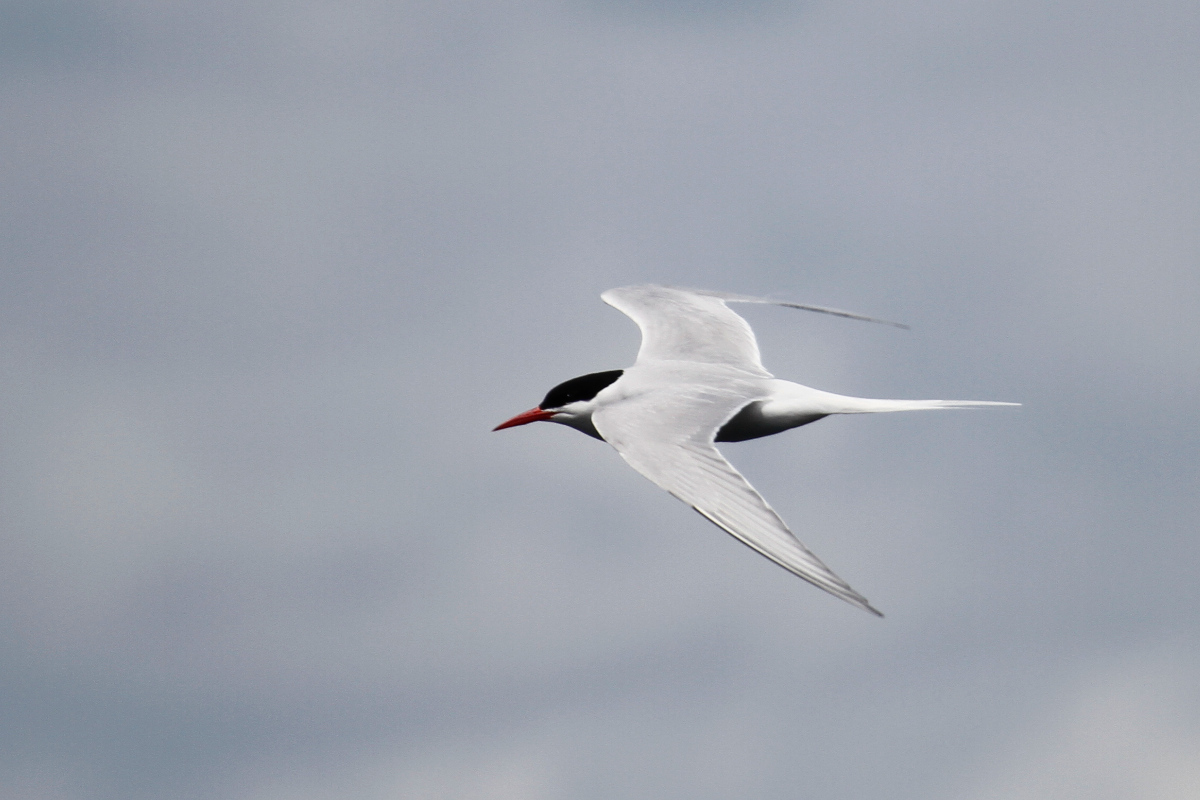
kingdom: Animalia
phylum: Chordata
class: Aves
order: Charadriiformes
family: Laridae
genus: Sterna
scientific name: Sterna hirundinacea
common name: South american tern
